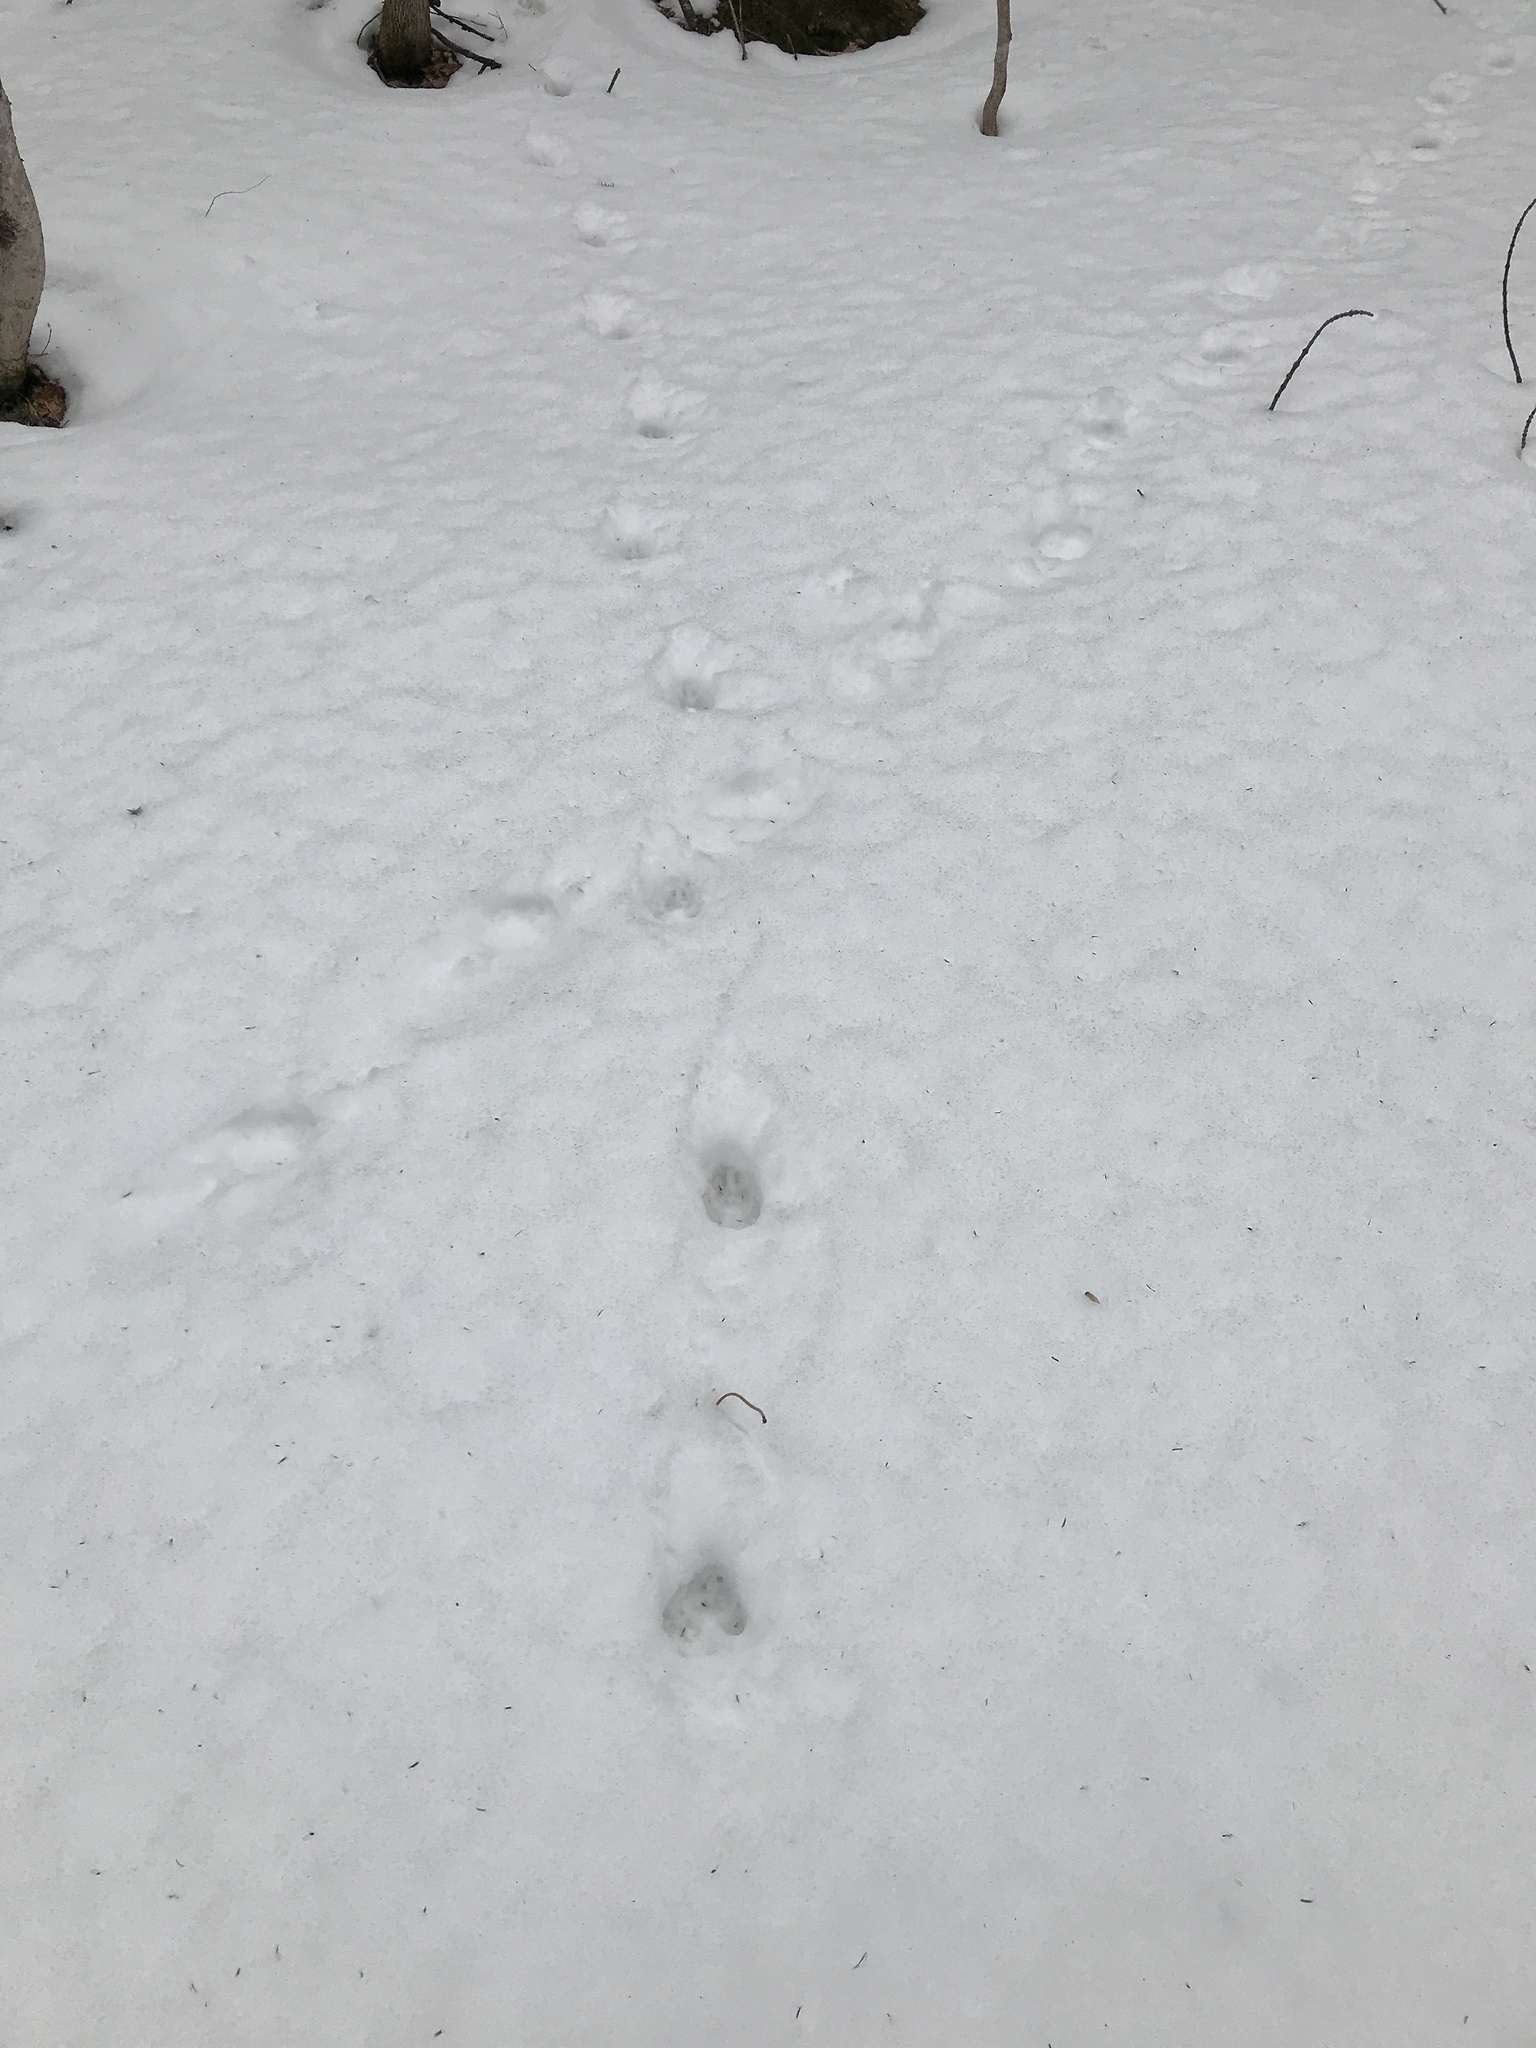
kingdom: Animalia
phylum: Chordata
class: Mammalia
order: Carnivora
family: Canidae
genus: Canis
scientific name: Canis latrans
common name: Coyote
